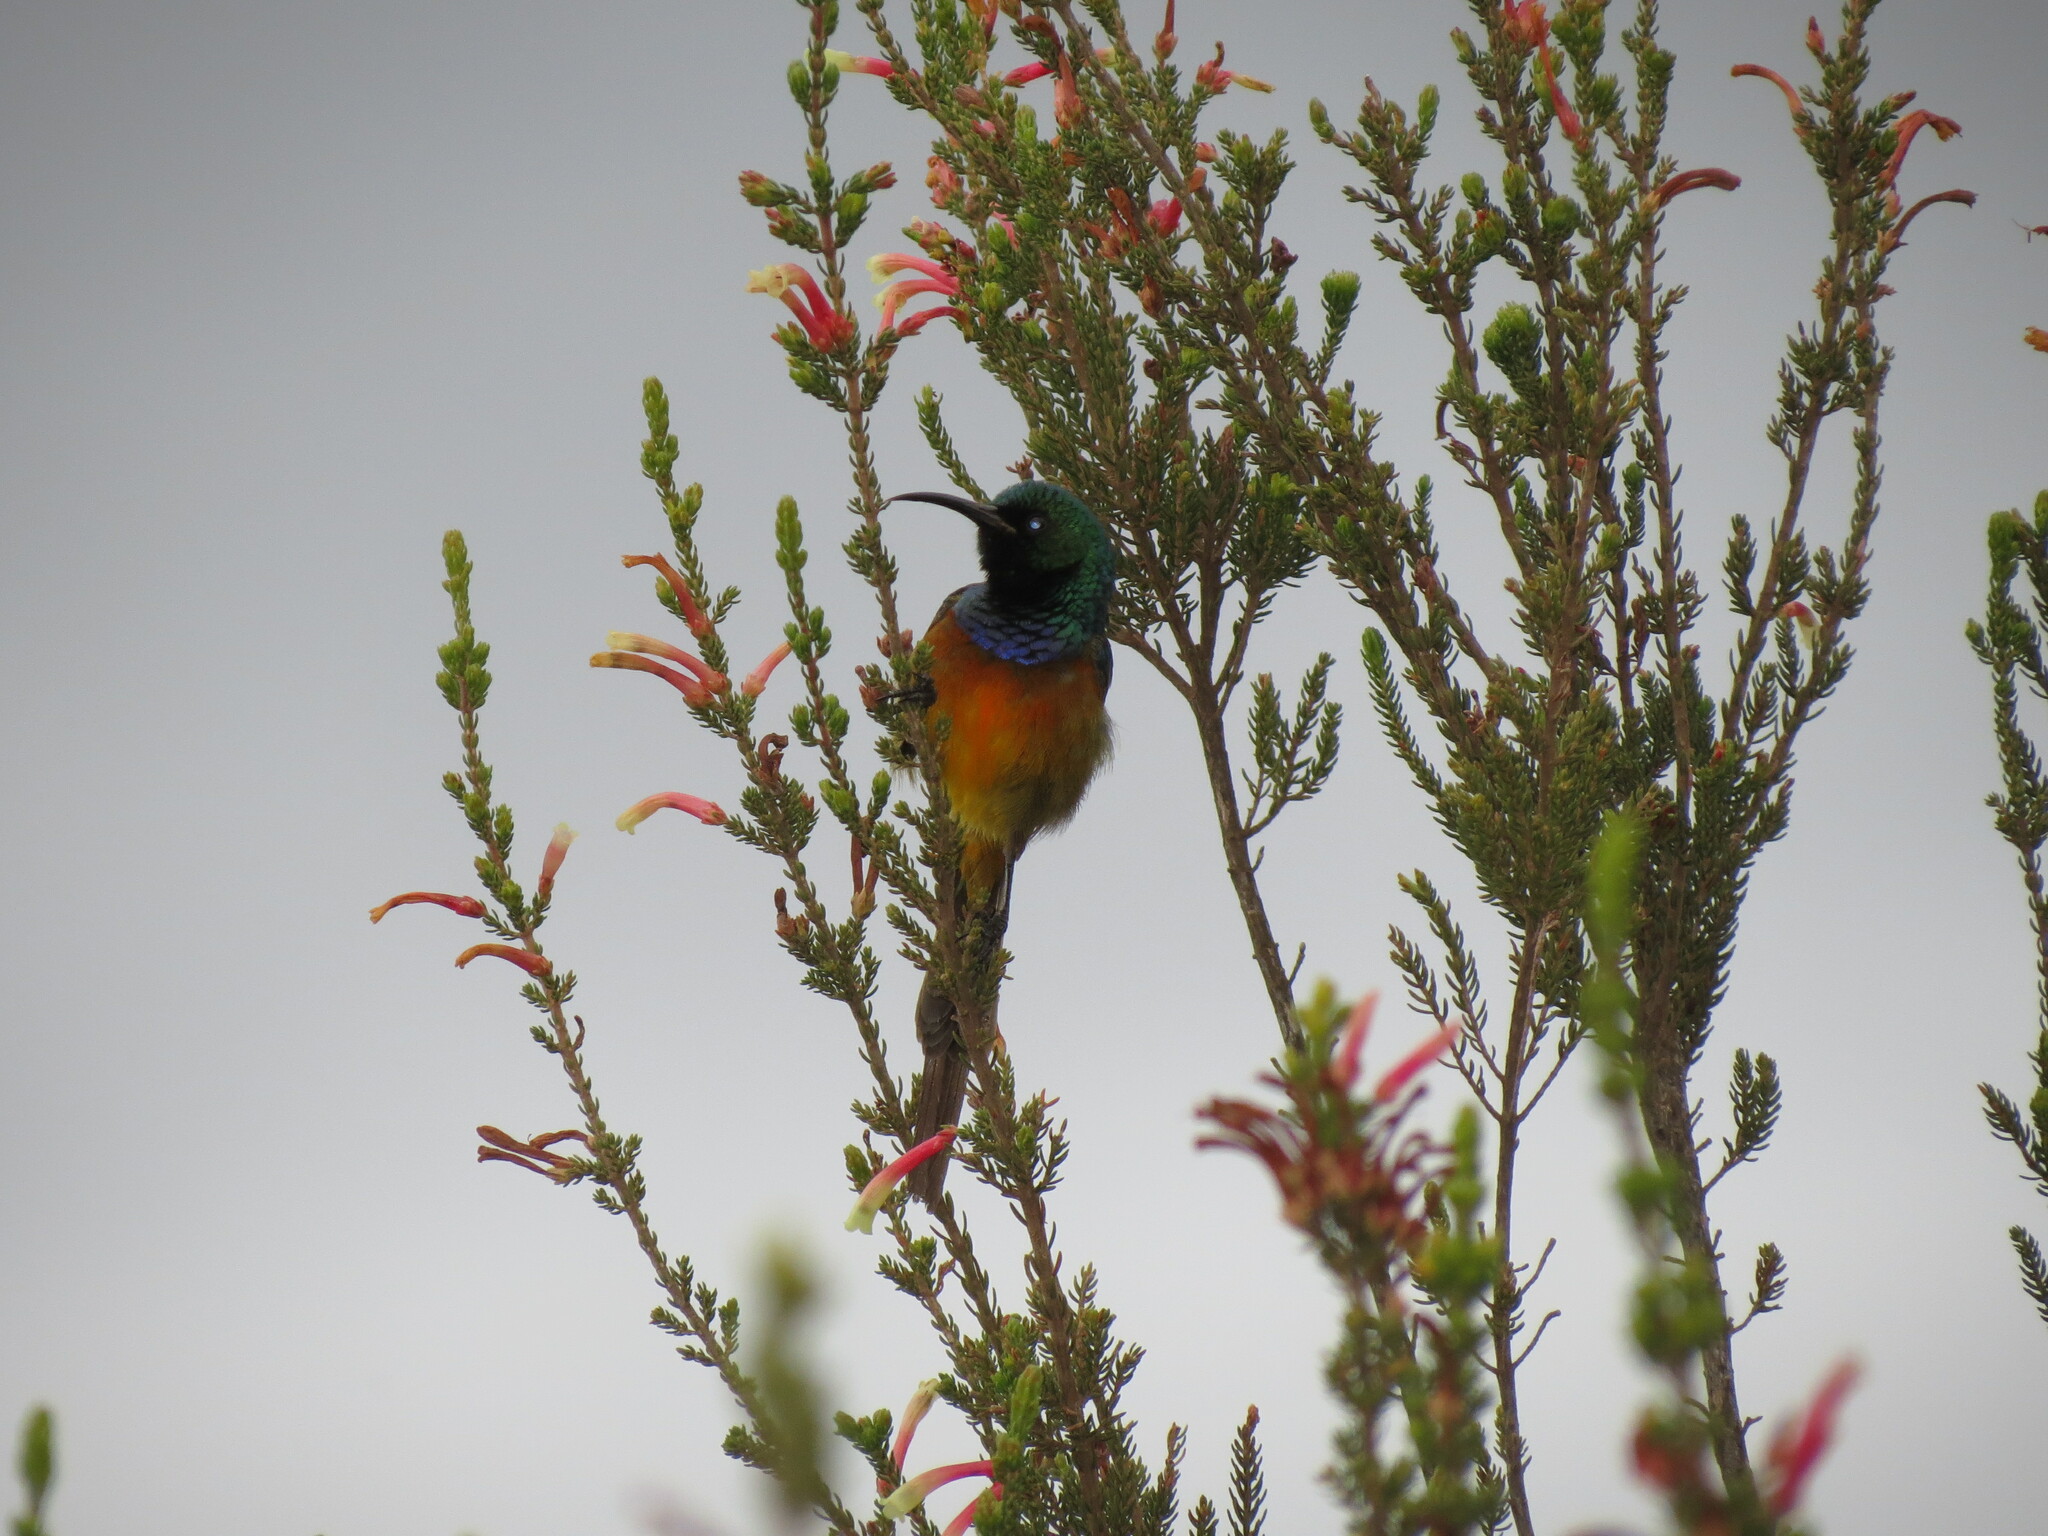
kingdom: Animalia
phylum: Chordata
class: Aves
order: Passeriformes
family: Nectariniidae
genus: Anthobaphes
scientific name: Anthobaphes violacea
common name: Orange-breasted sunbird
